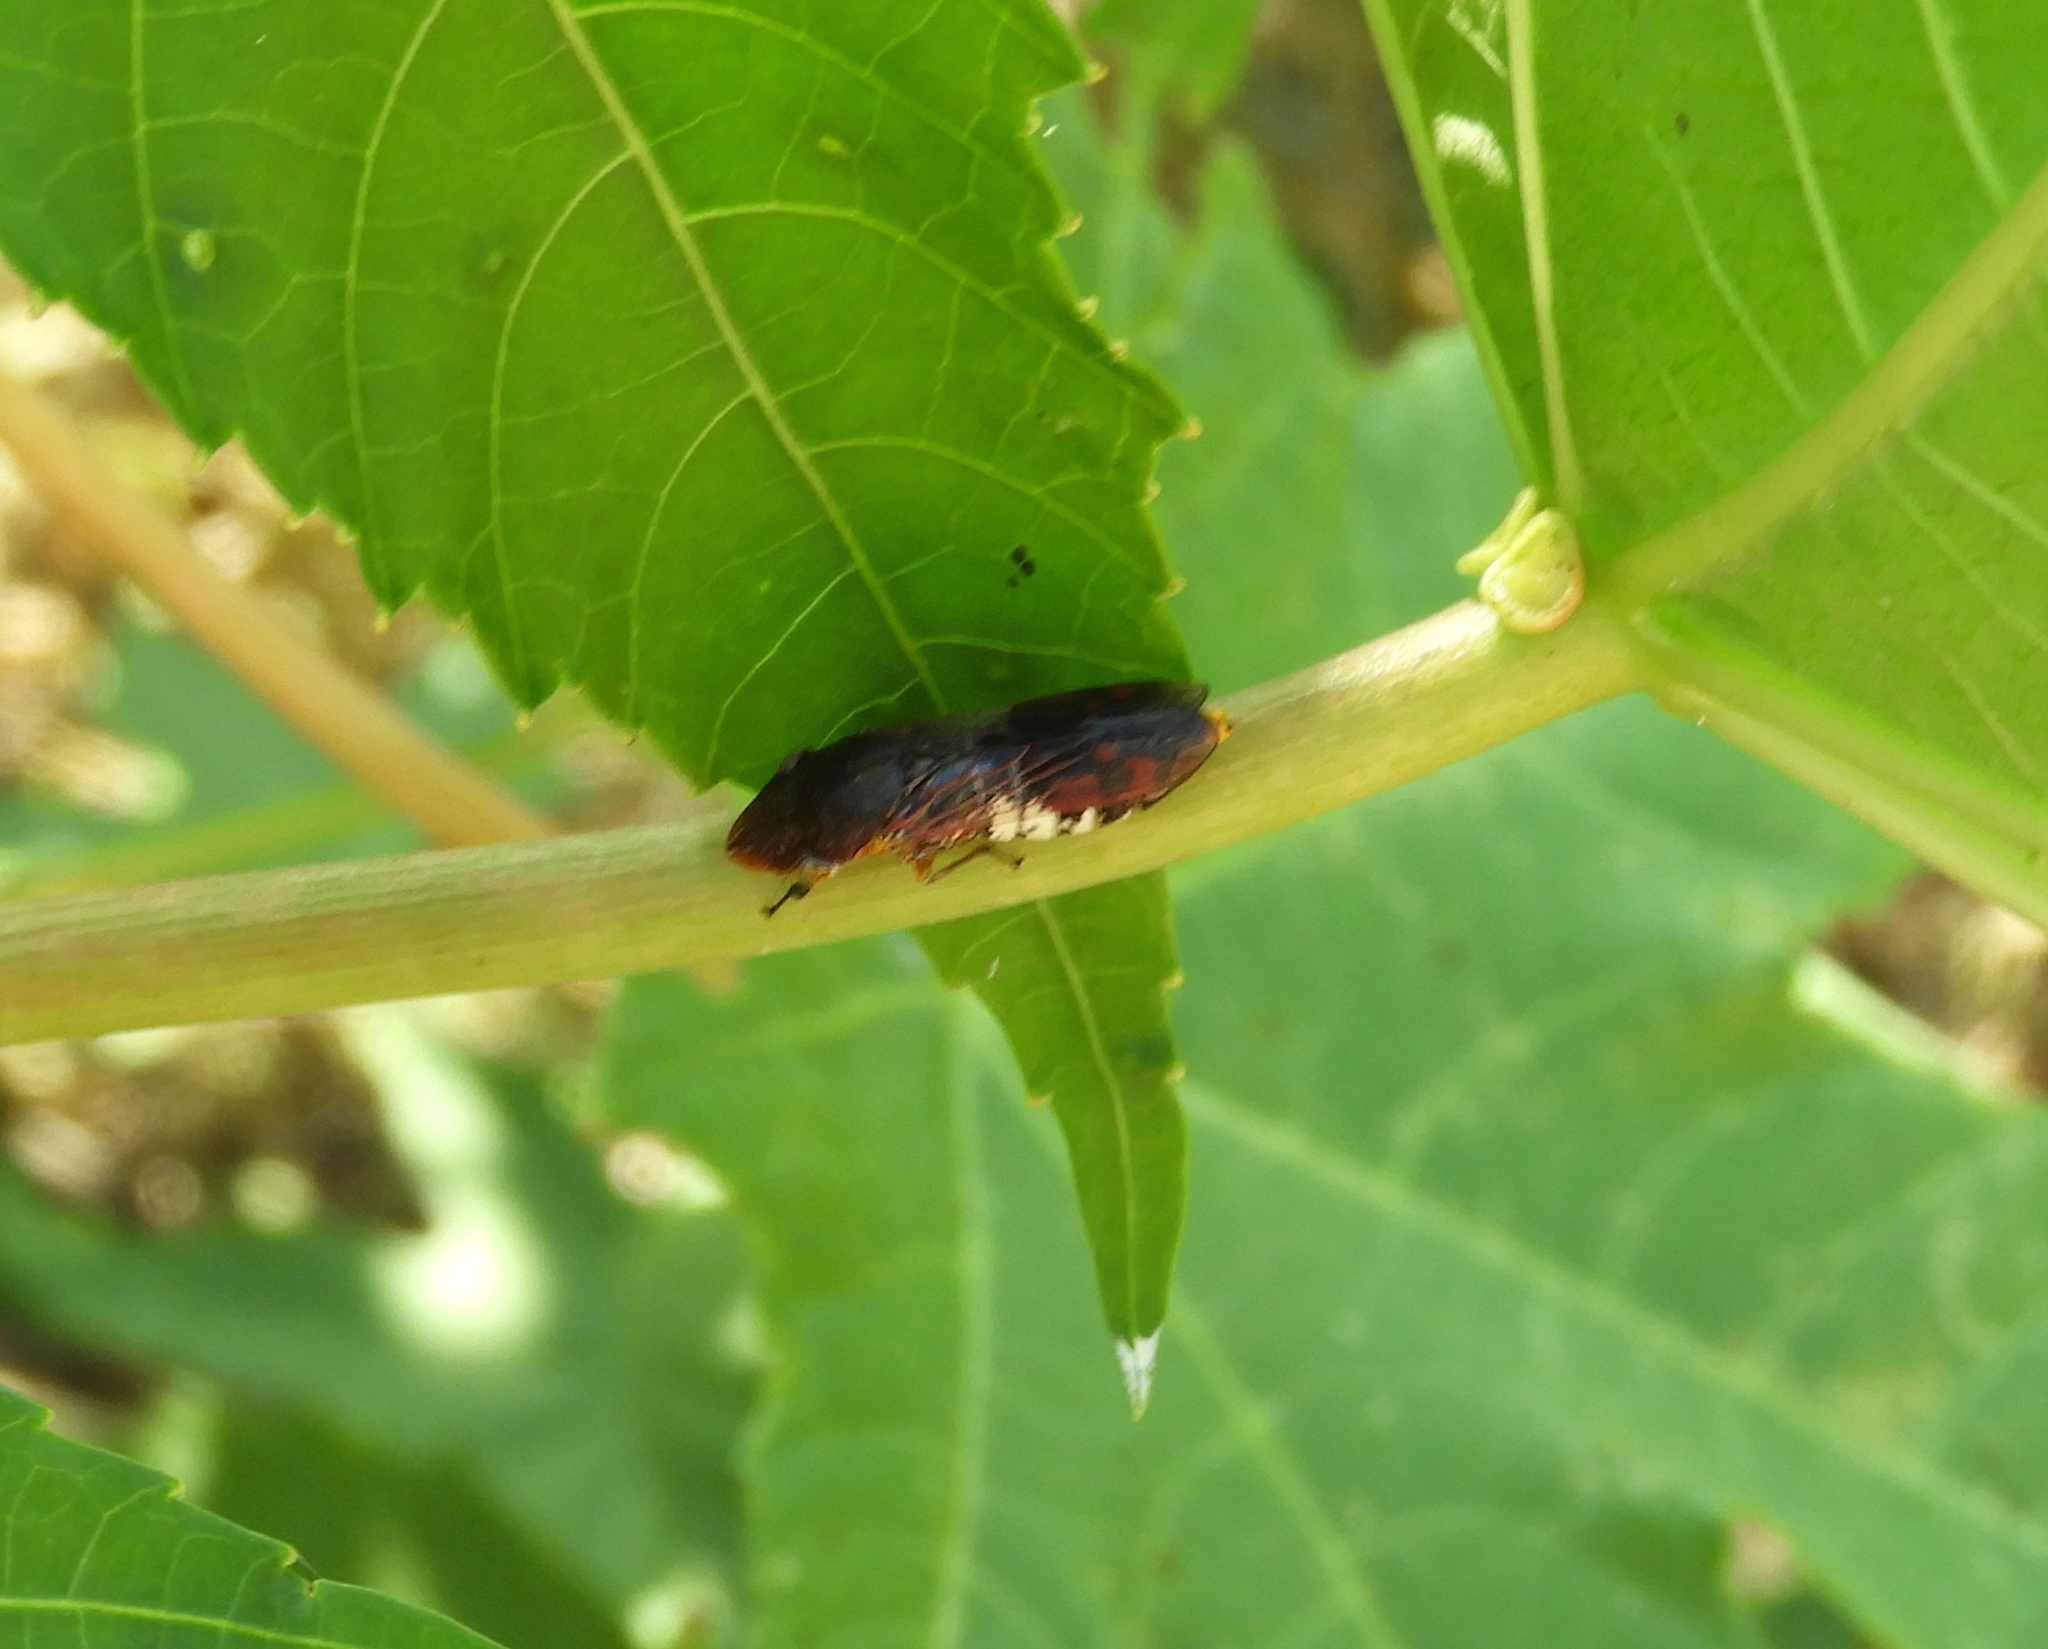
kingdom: Animalia
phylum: Arthropoda
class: Insecta
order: Hemiptera
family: Cicadellidae
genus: Homalodisca
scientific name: Homalodisca ichthyocephala
